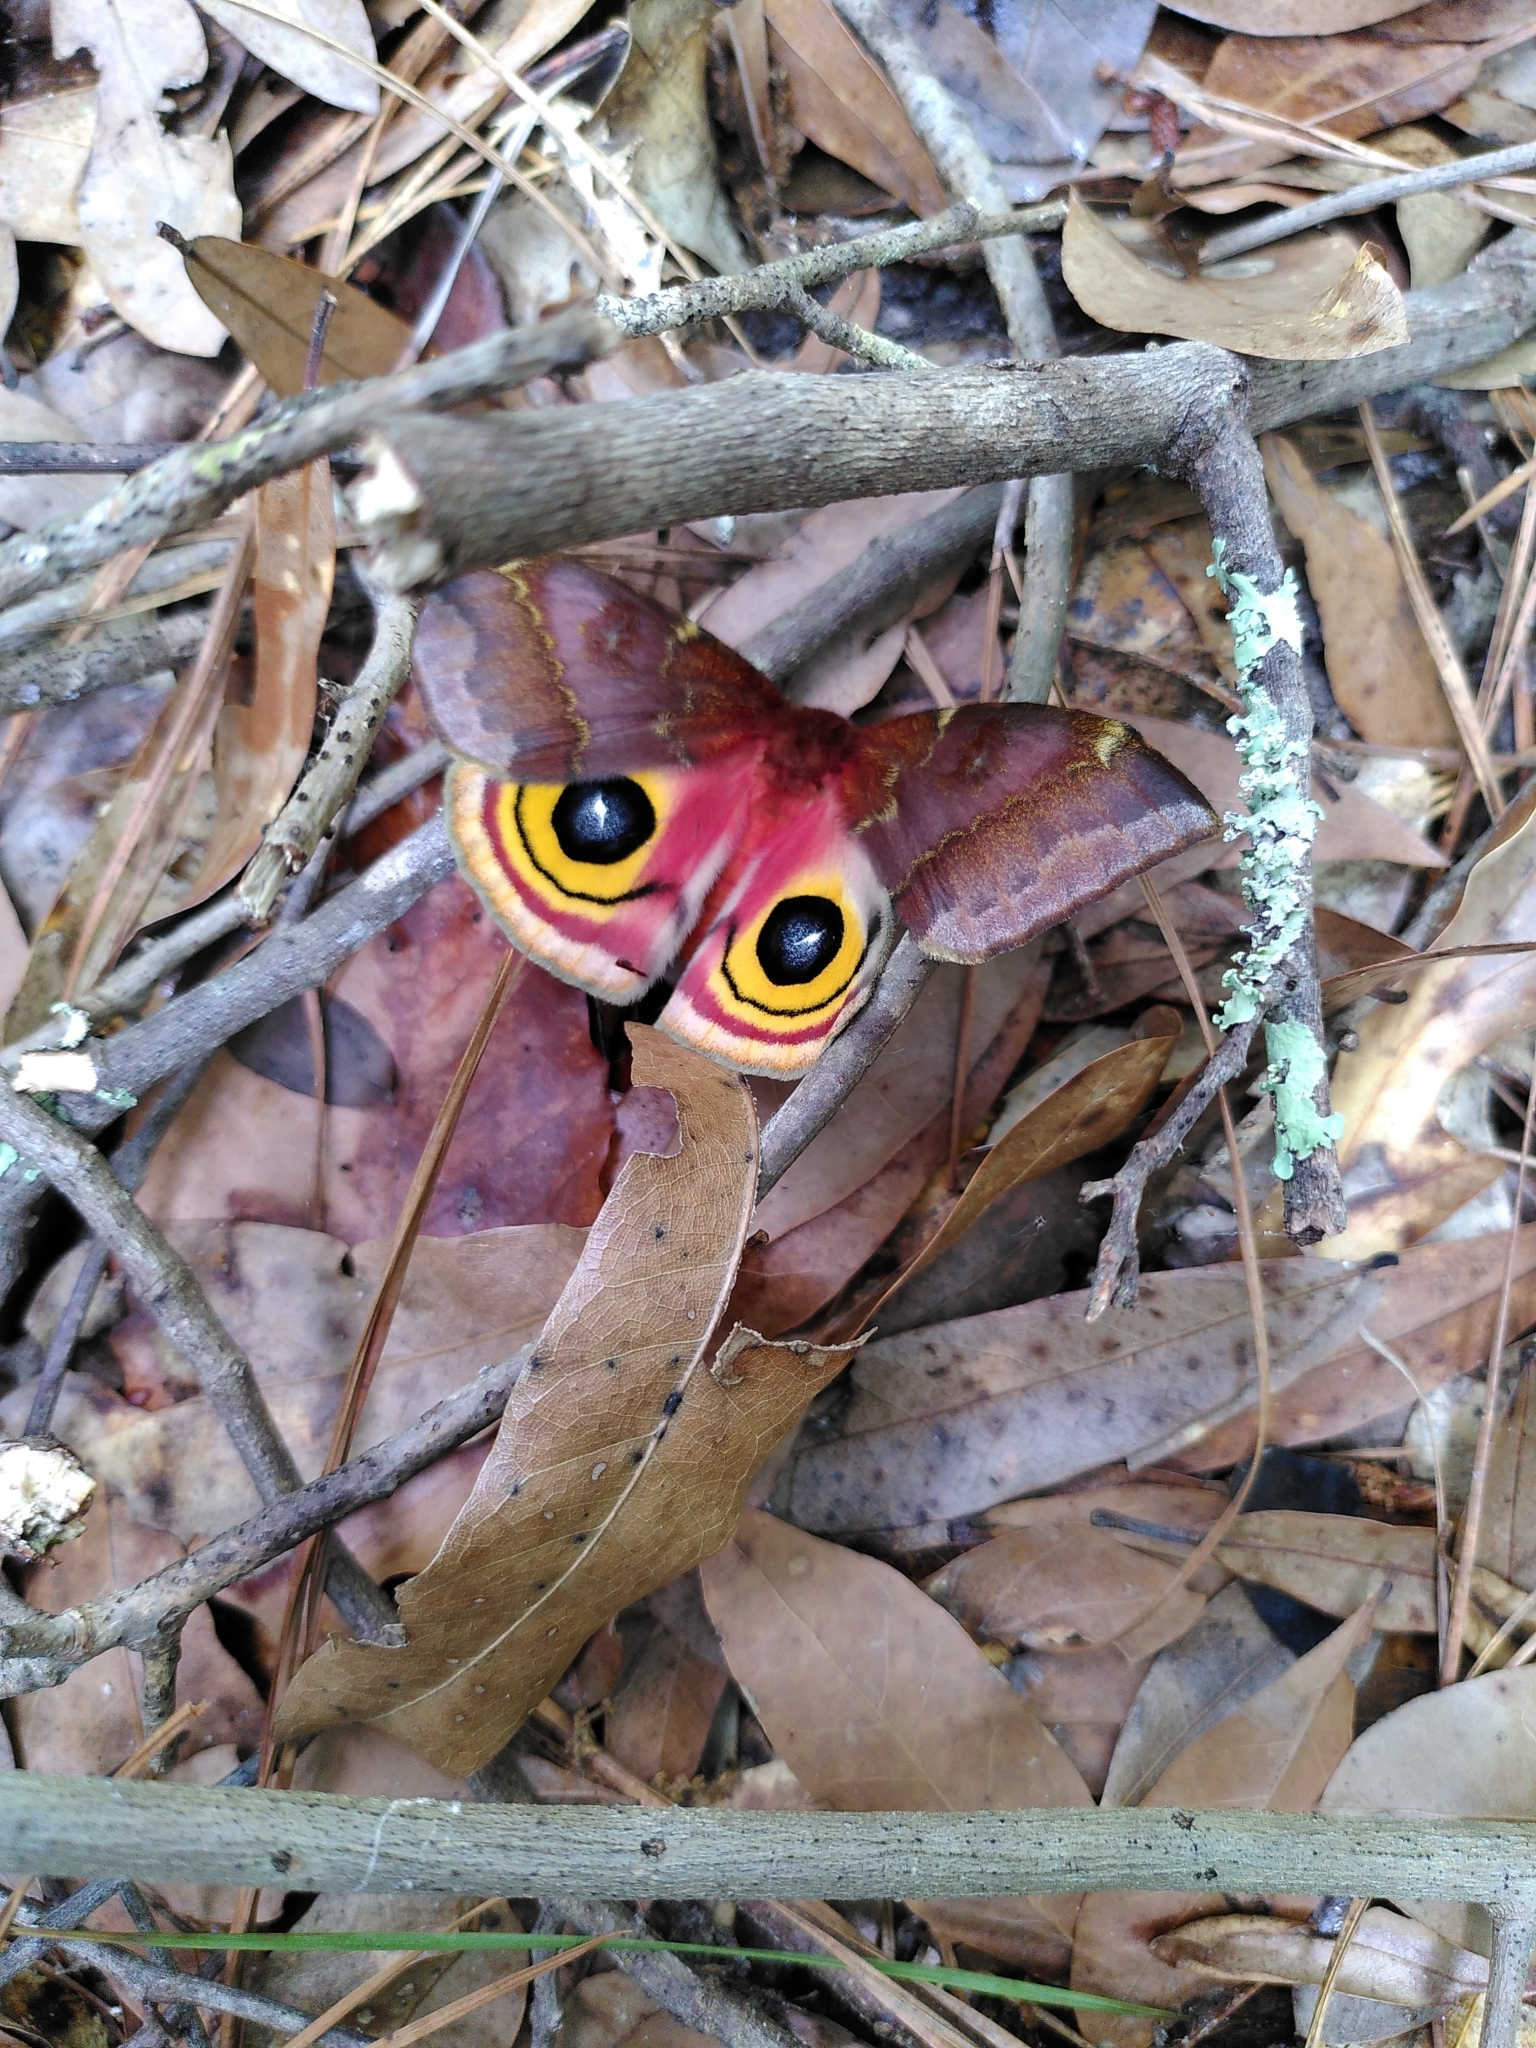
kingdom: Animalia
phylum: Arthropoda
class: Insecta
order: Lepidoptera
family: Saturniidae
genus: Automeris
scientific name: Automeris io
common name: Io moth
